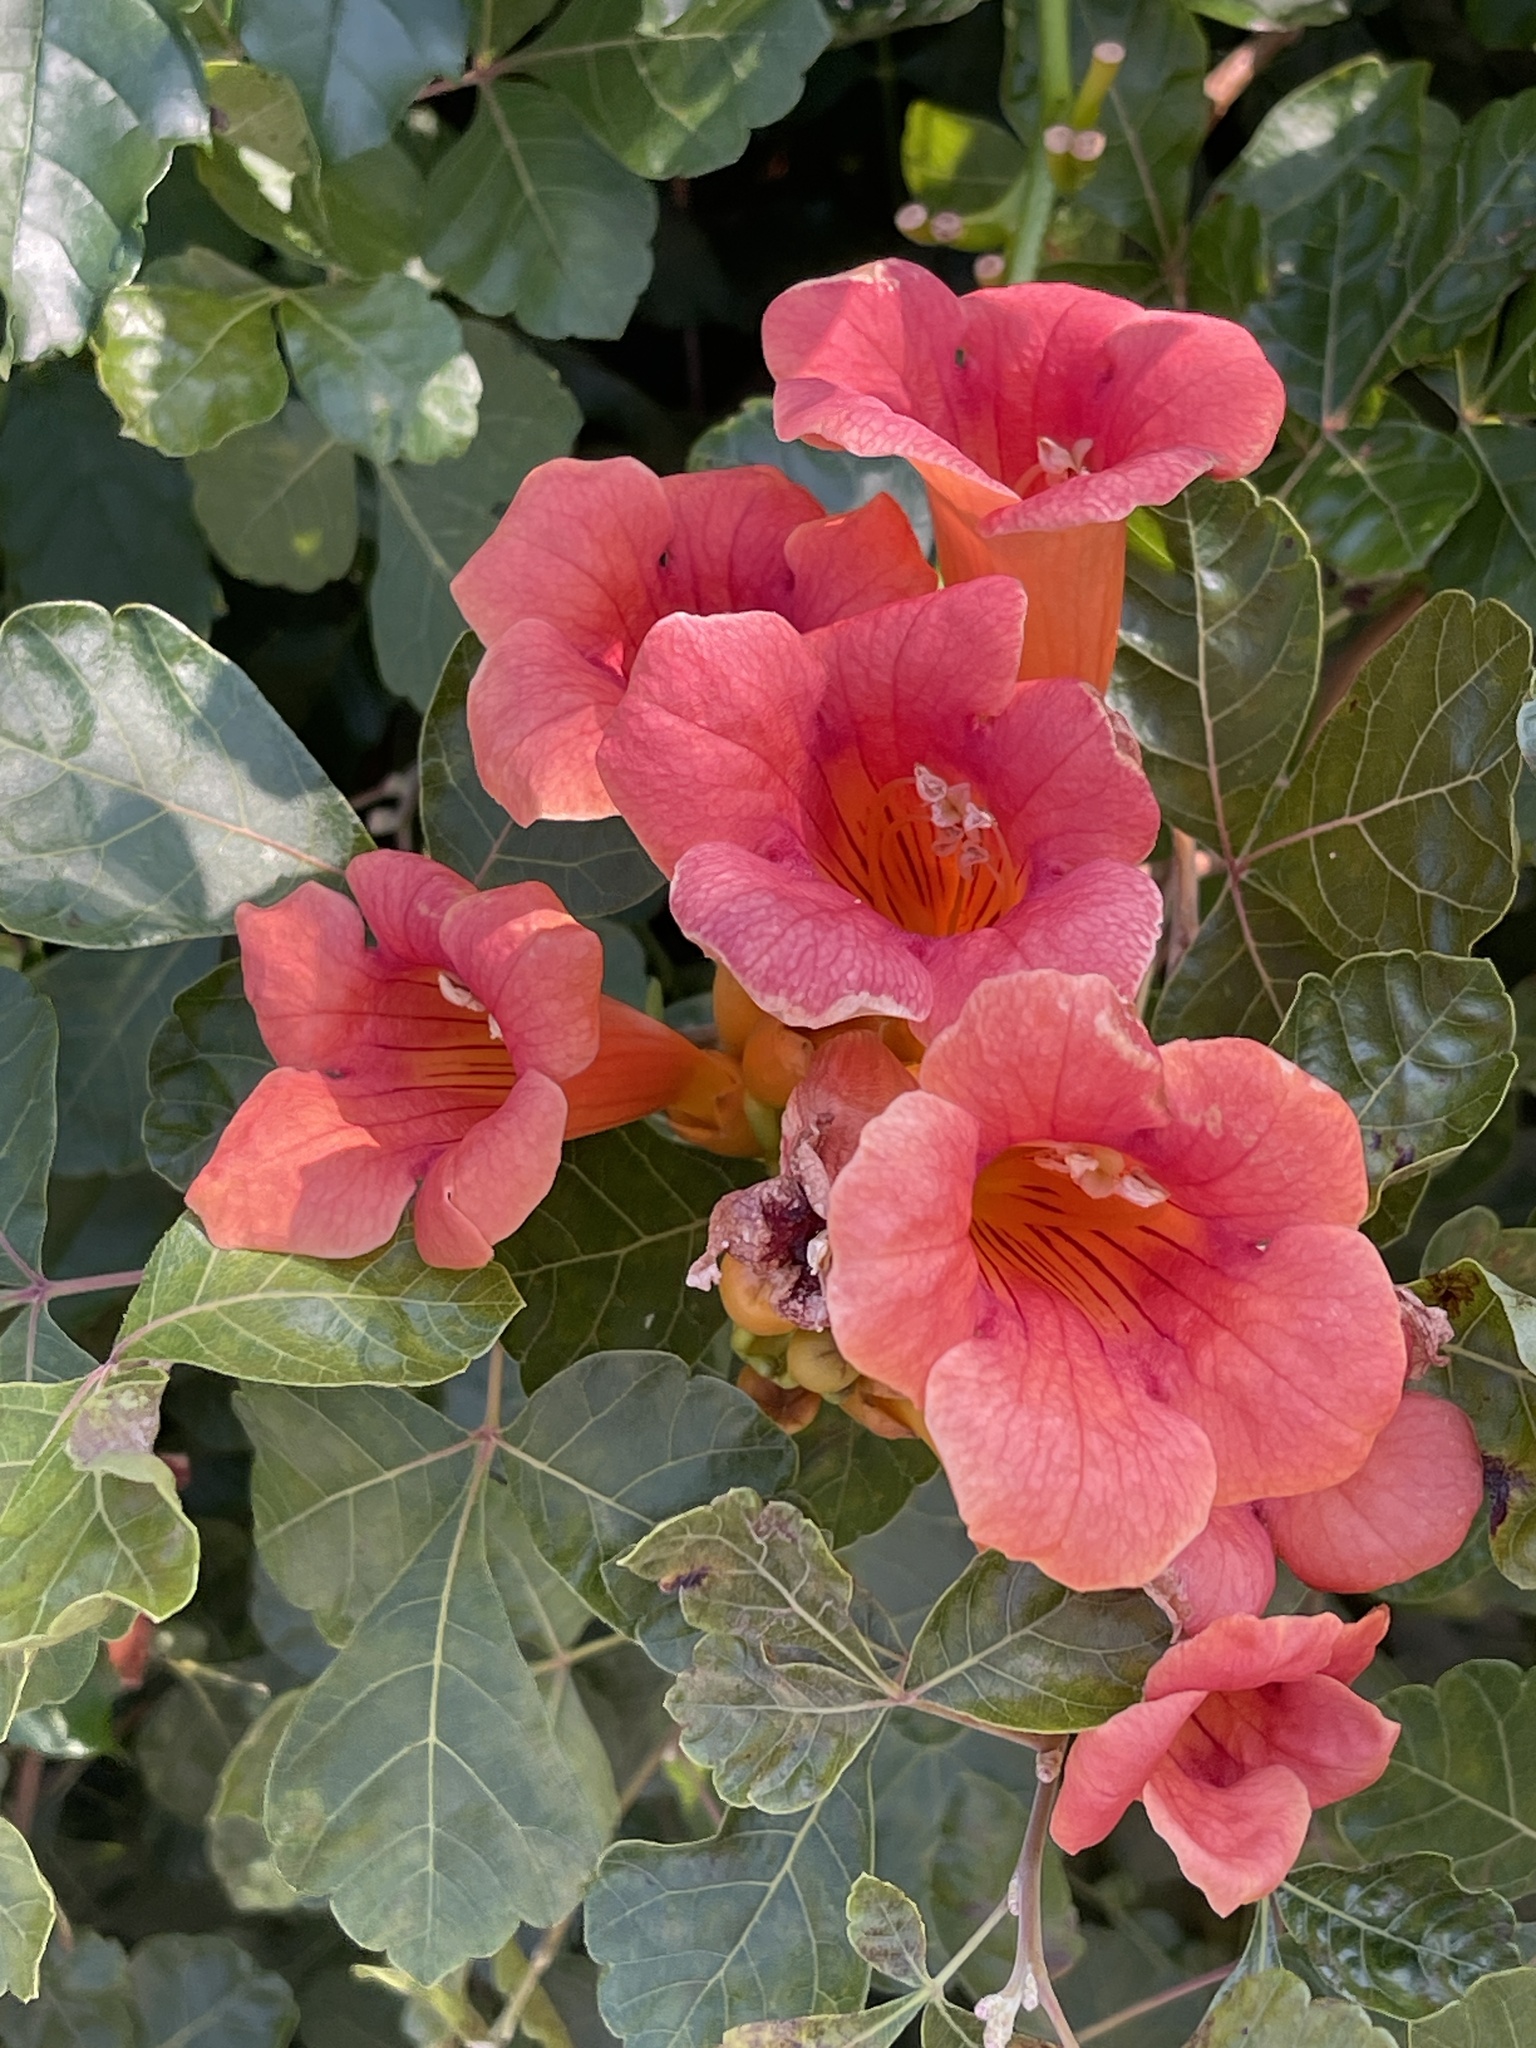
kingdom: Plantae
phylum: Tracheophyta
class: Magnoliopsida
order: Lamiales
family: Bignoniaceae
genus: Campsis
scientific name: Campsis radicans
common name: Trumpet-creeper
